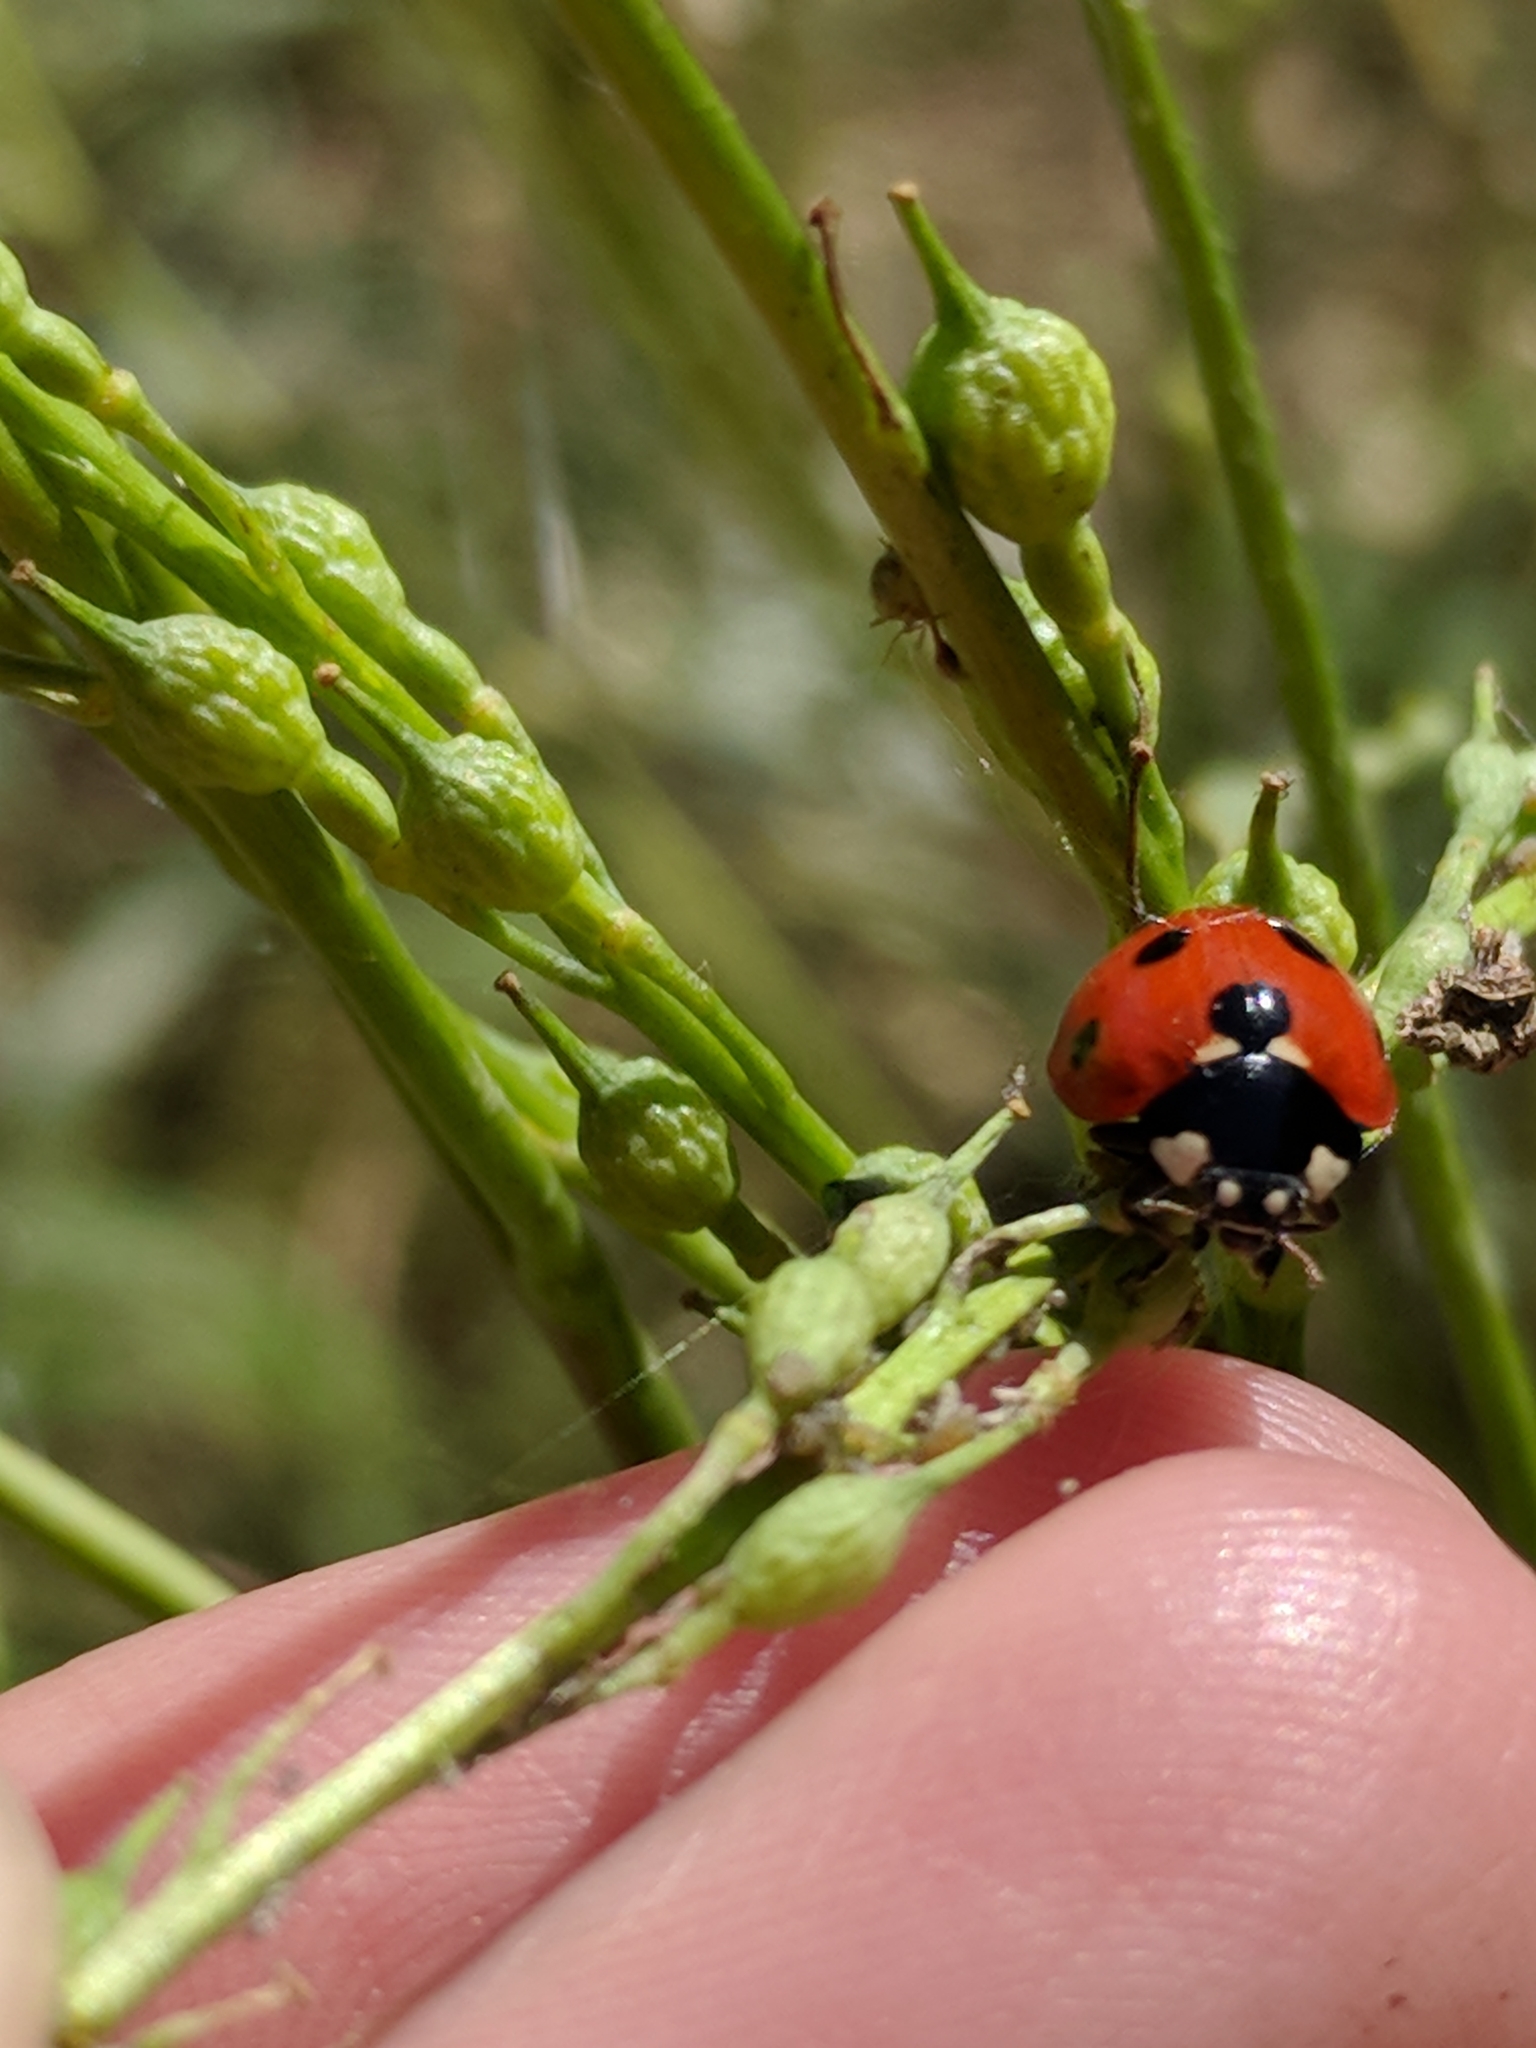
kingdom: Animalia
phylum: Arthropoda
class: Insecta
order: Coleoptera
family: Coccinellidae
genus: Coccinella
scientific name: Coccinella septempunctata
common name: Sevenspotted lady beetle
